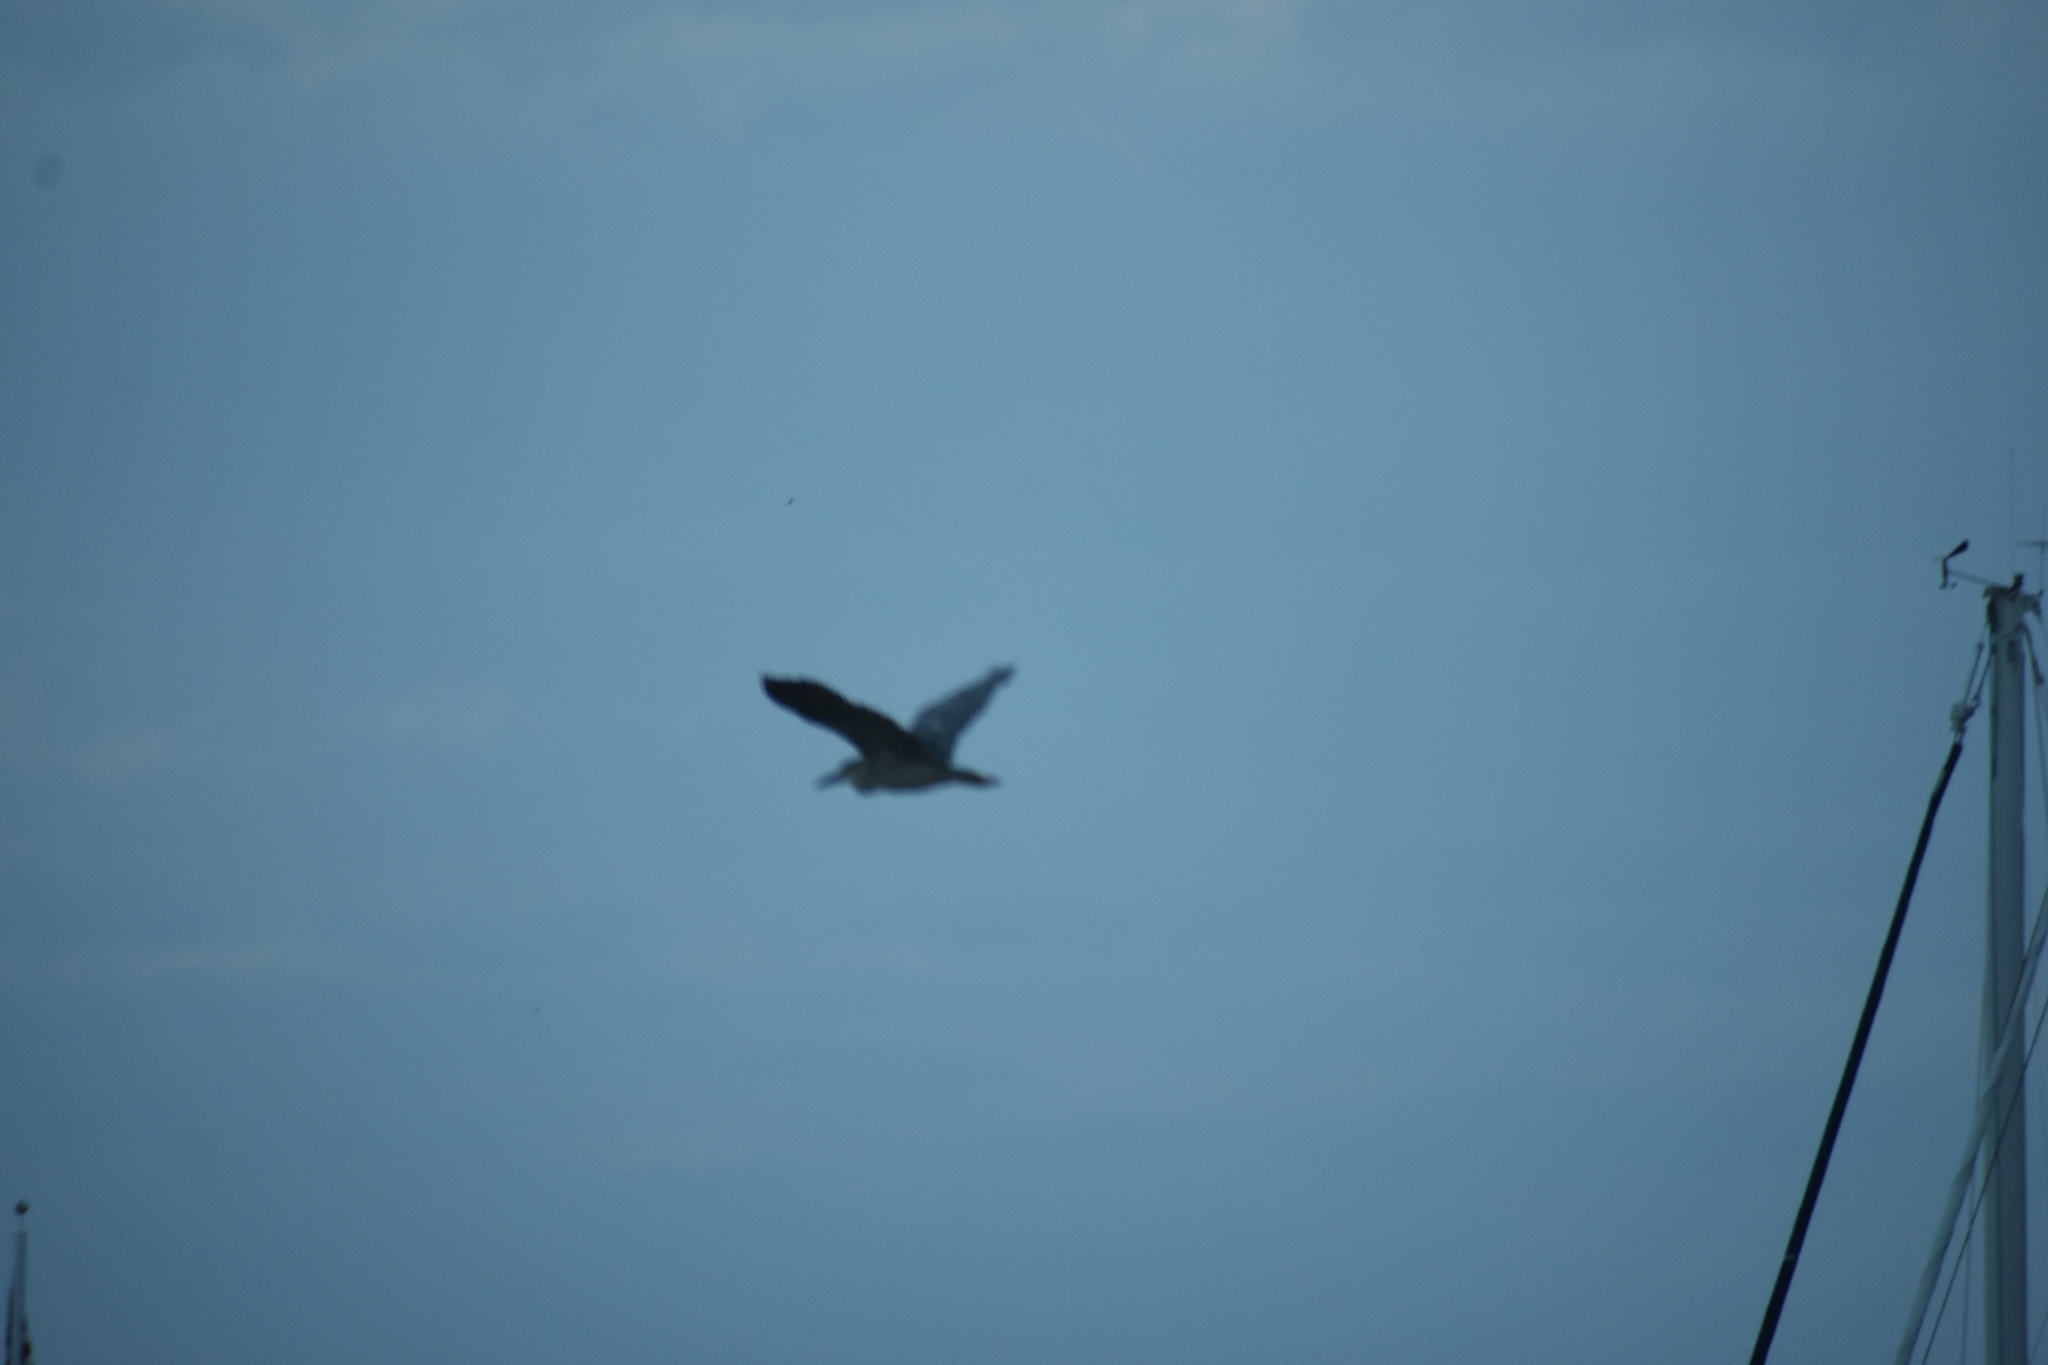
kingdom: Animalia
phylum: Chordata
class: Aves
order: Pelecaniformes
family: Ardeidae
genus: Nycticorax
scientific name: Nycticorax nycticorax
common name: Black-crowned night heron
